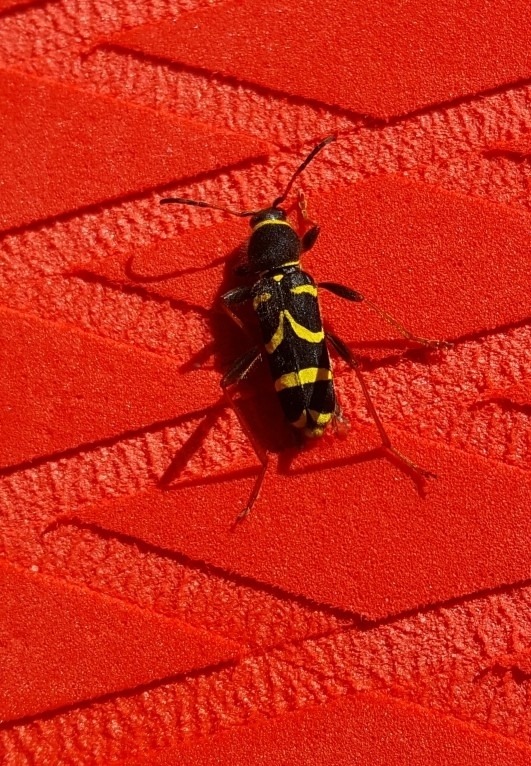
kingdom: Animalia
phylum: Arthropoda
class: Insecta
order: Coleoptera
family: Cerambycidae
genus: Clytus
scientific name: Clytus arietis
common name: Wasp beetle
